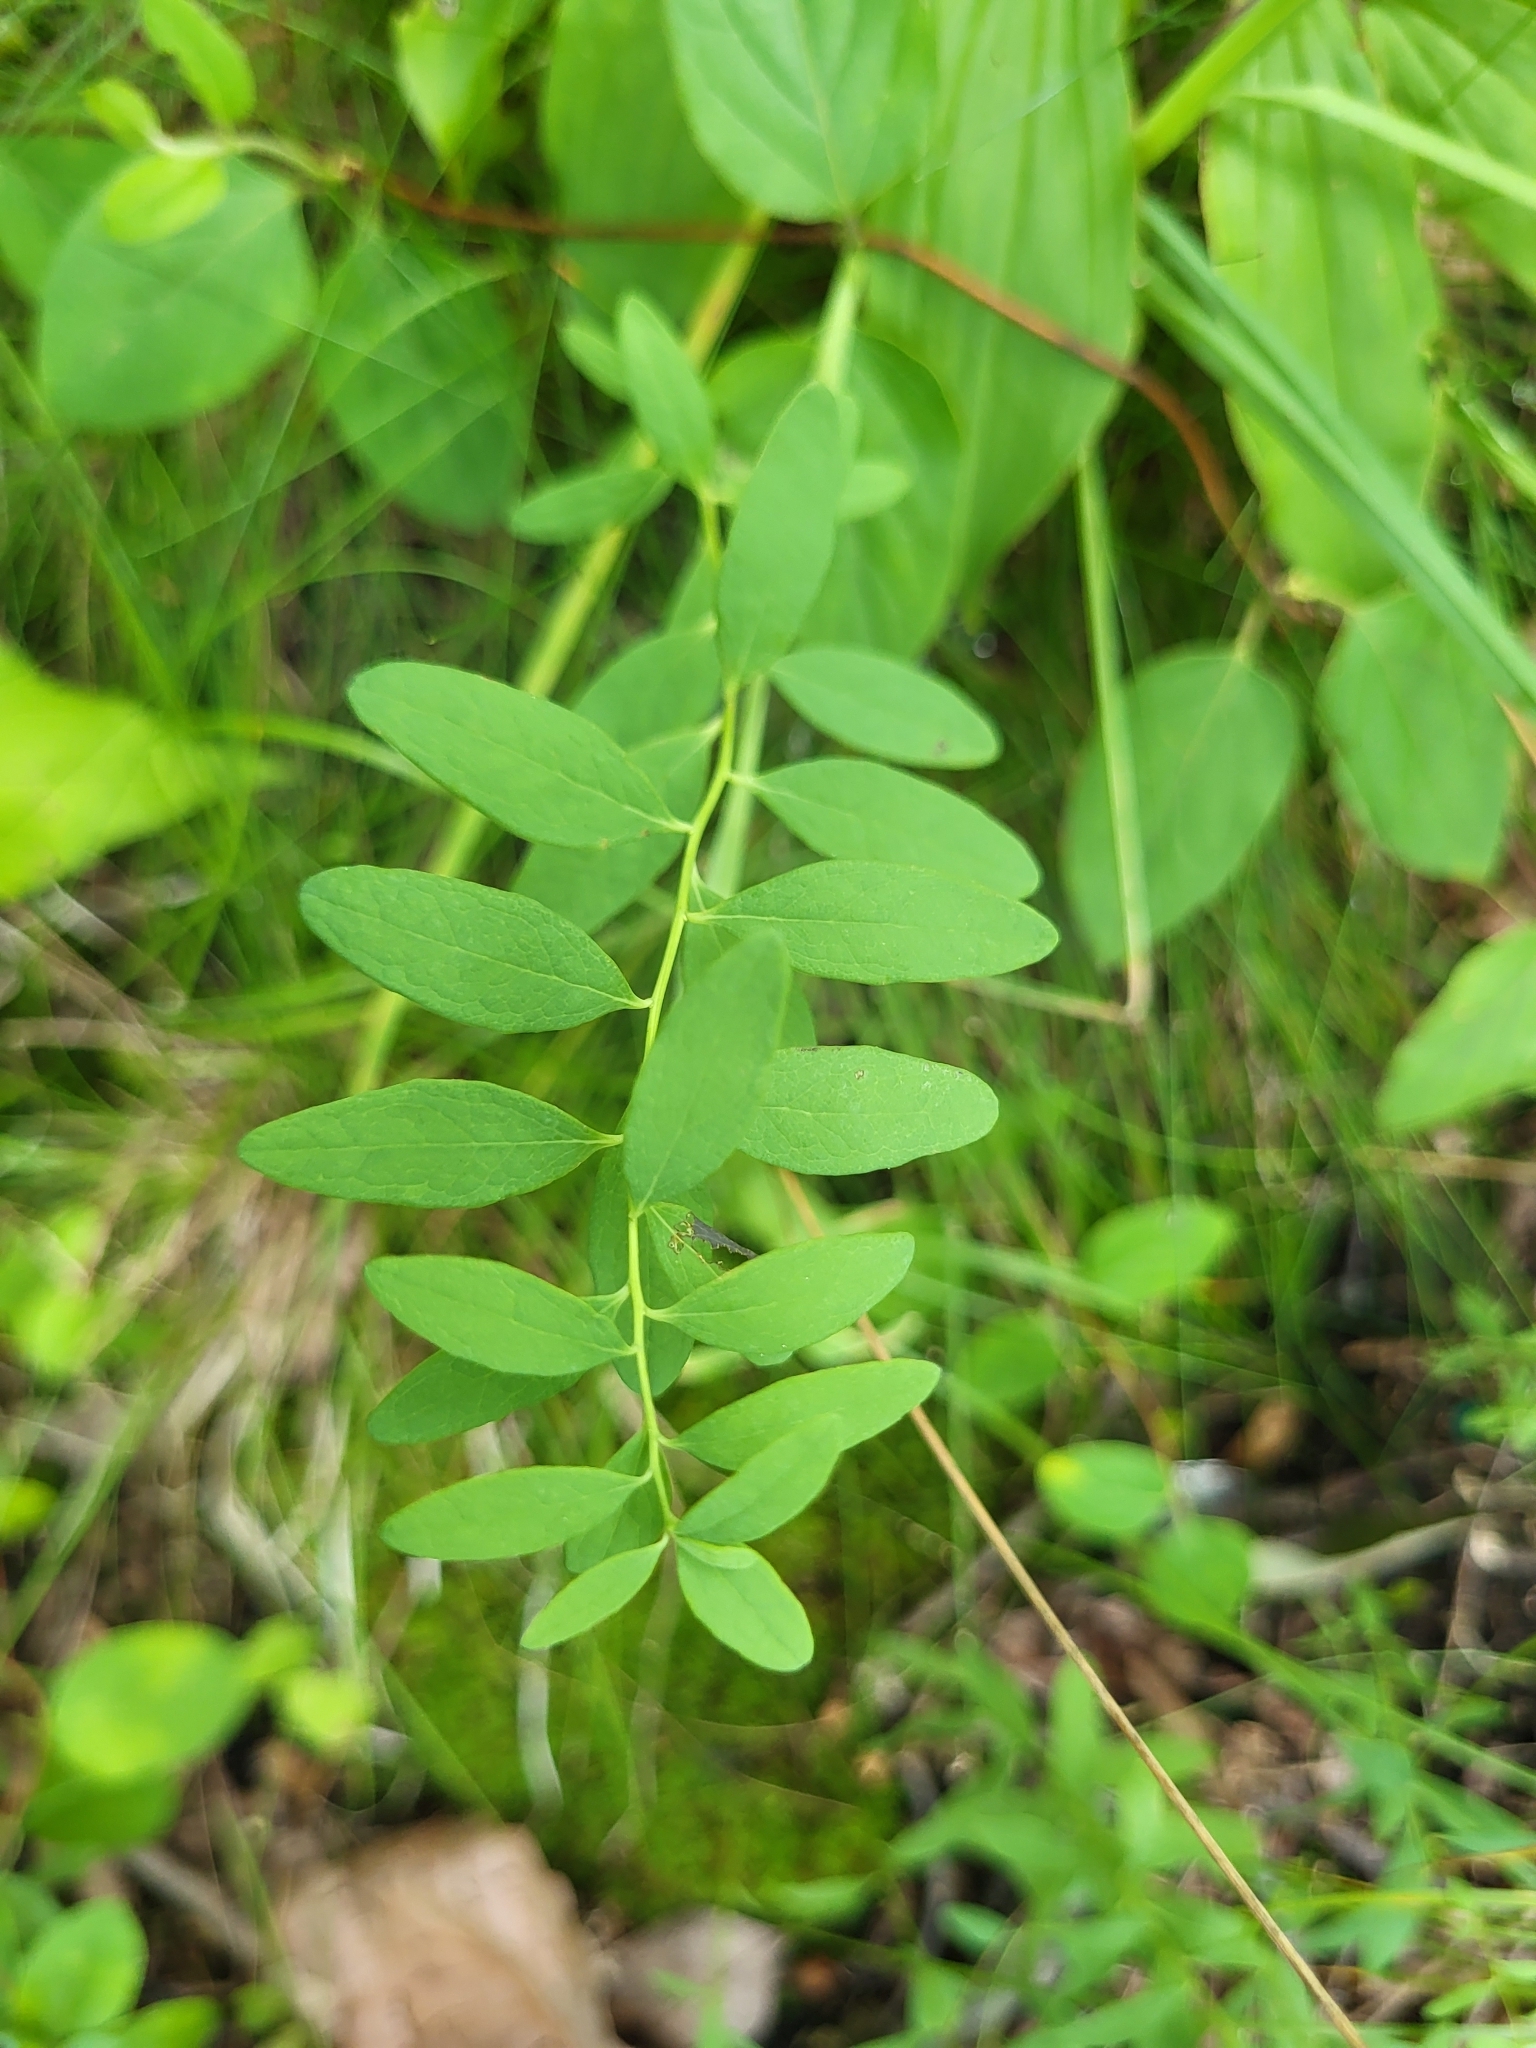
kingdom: Plantae
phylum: Tracheophyta
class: Magnoliopsida
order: Santalales
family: Comandraceae
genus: Comandra
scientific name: Comandra umbellata
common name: Bastard toadflax
